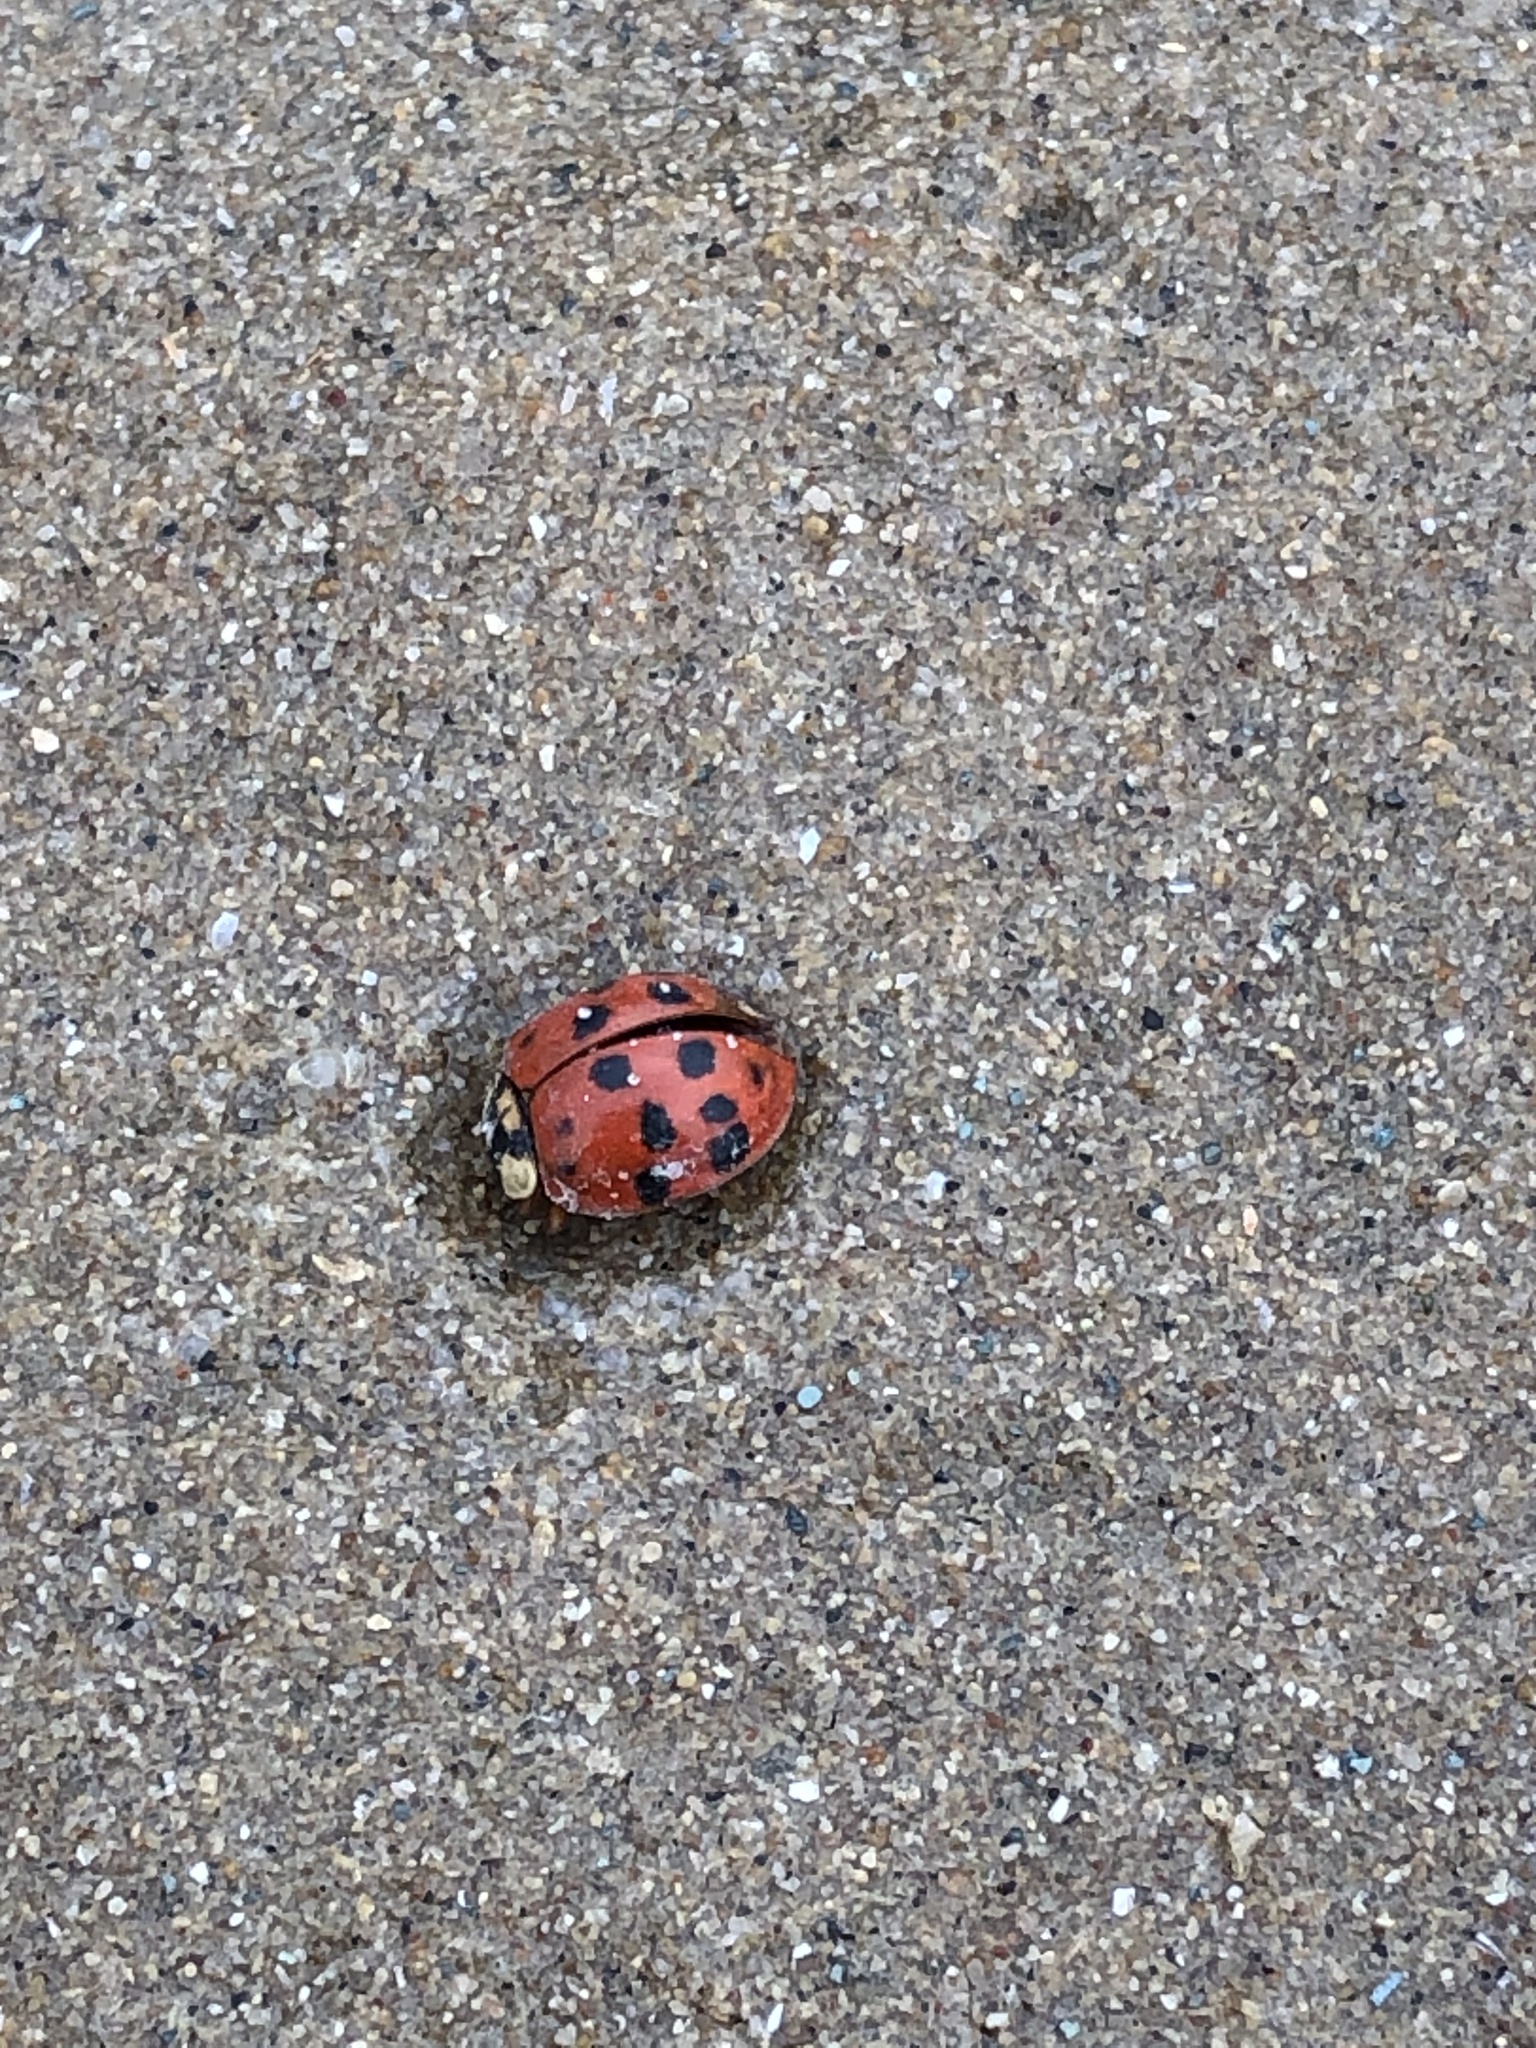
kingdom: Animalia
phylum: Arthropoda
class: Insecta
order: Coleoptera
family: Coccinellidae
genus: Harmonia
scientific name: Harmonia axyridis
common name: Harlequin ladybird
